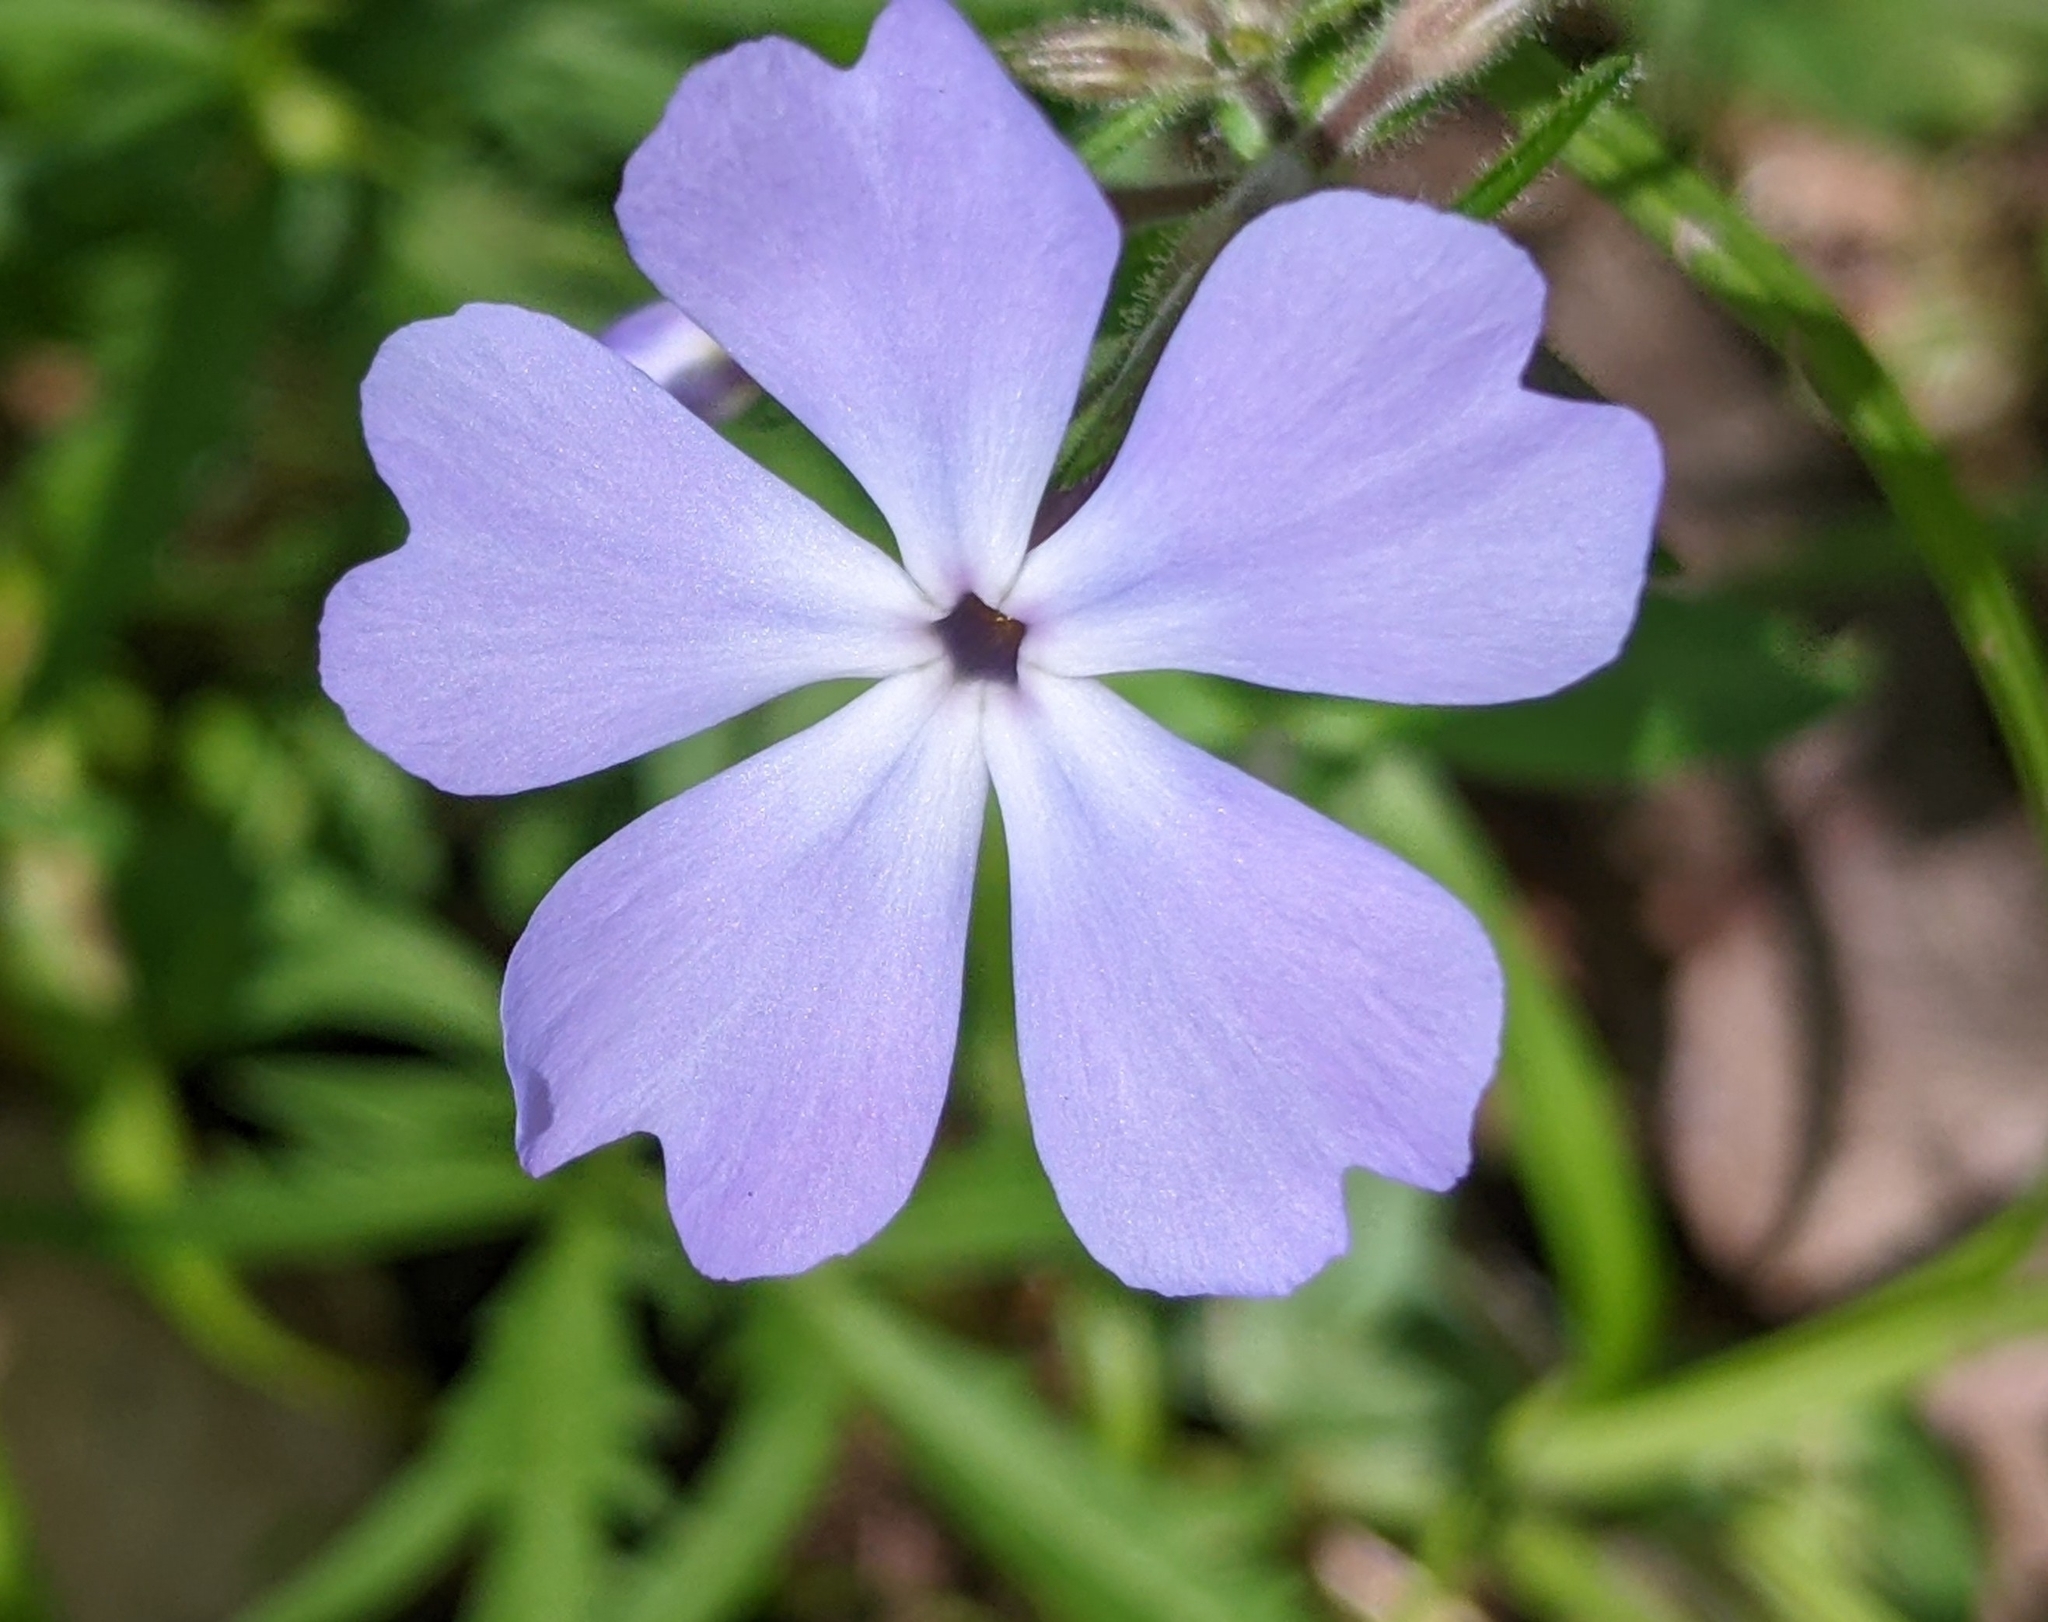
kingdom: Plantae
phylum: Tracheophyta
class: Magnoliopsida
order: Ericales
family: Polemoniaceae
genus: Phlox
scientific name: Phlox divaricata
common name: Blue phlox
